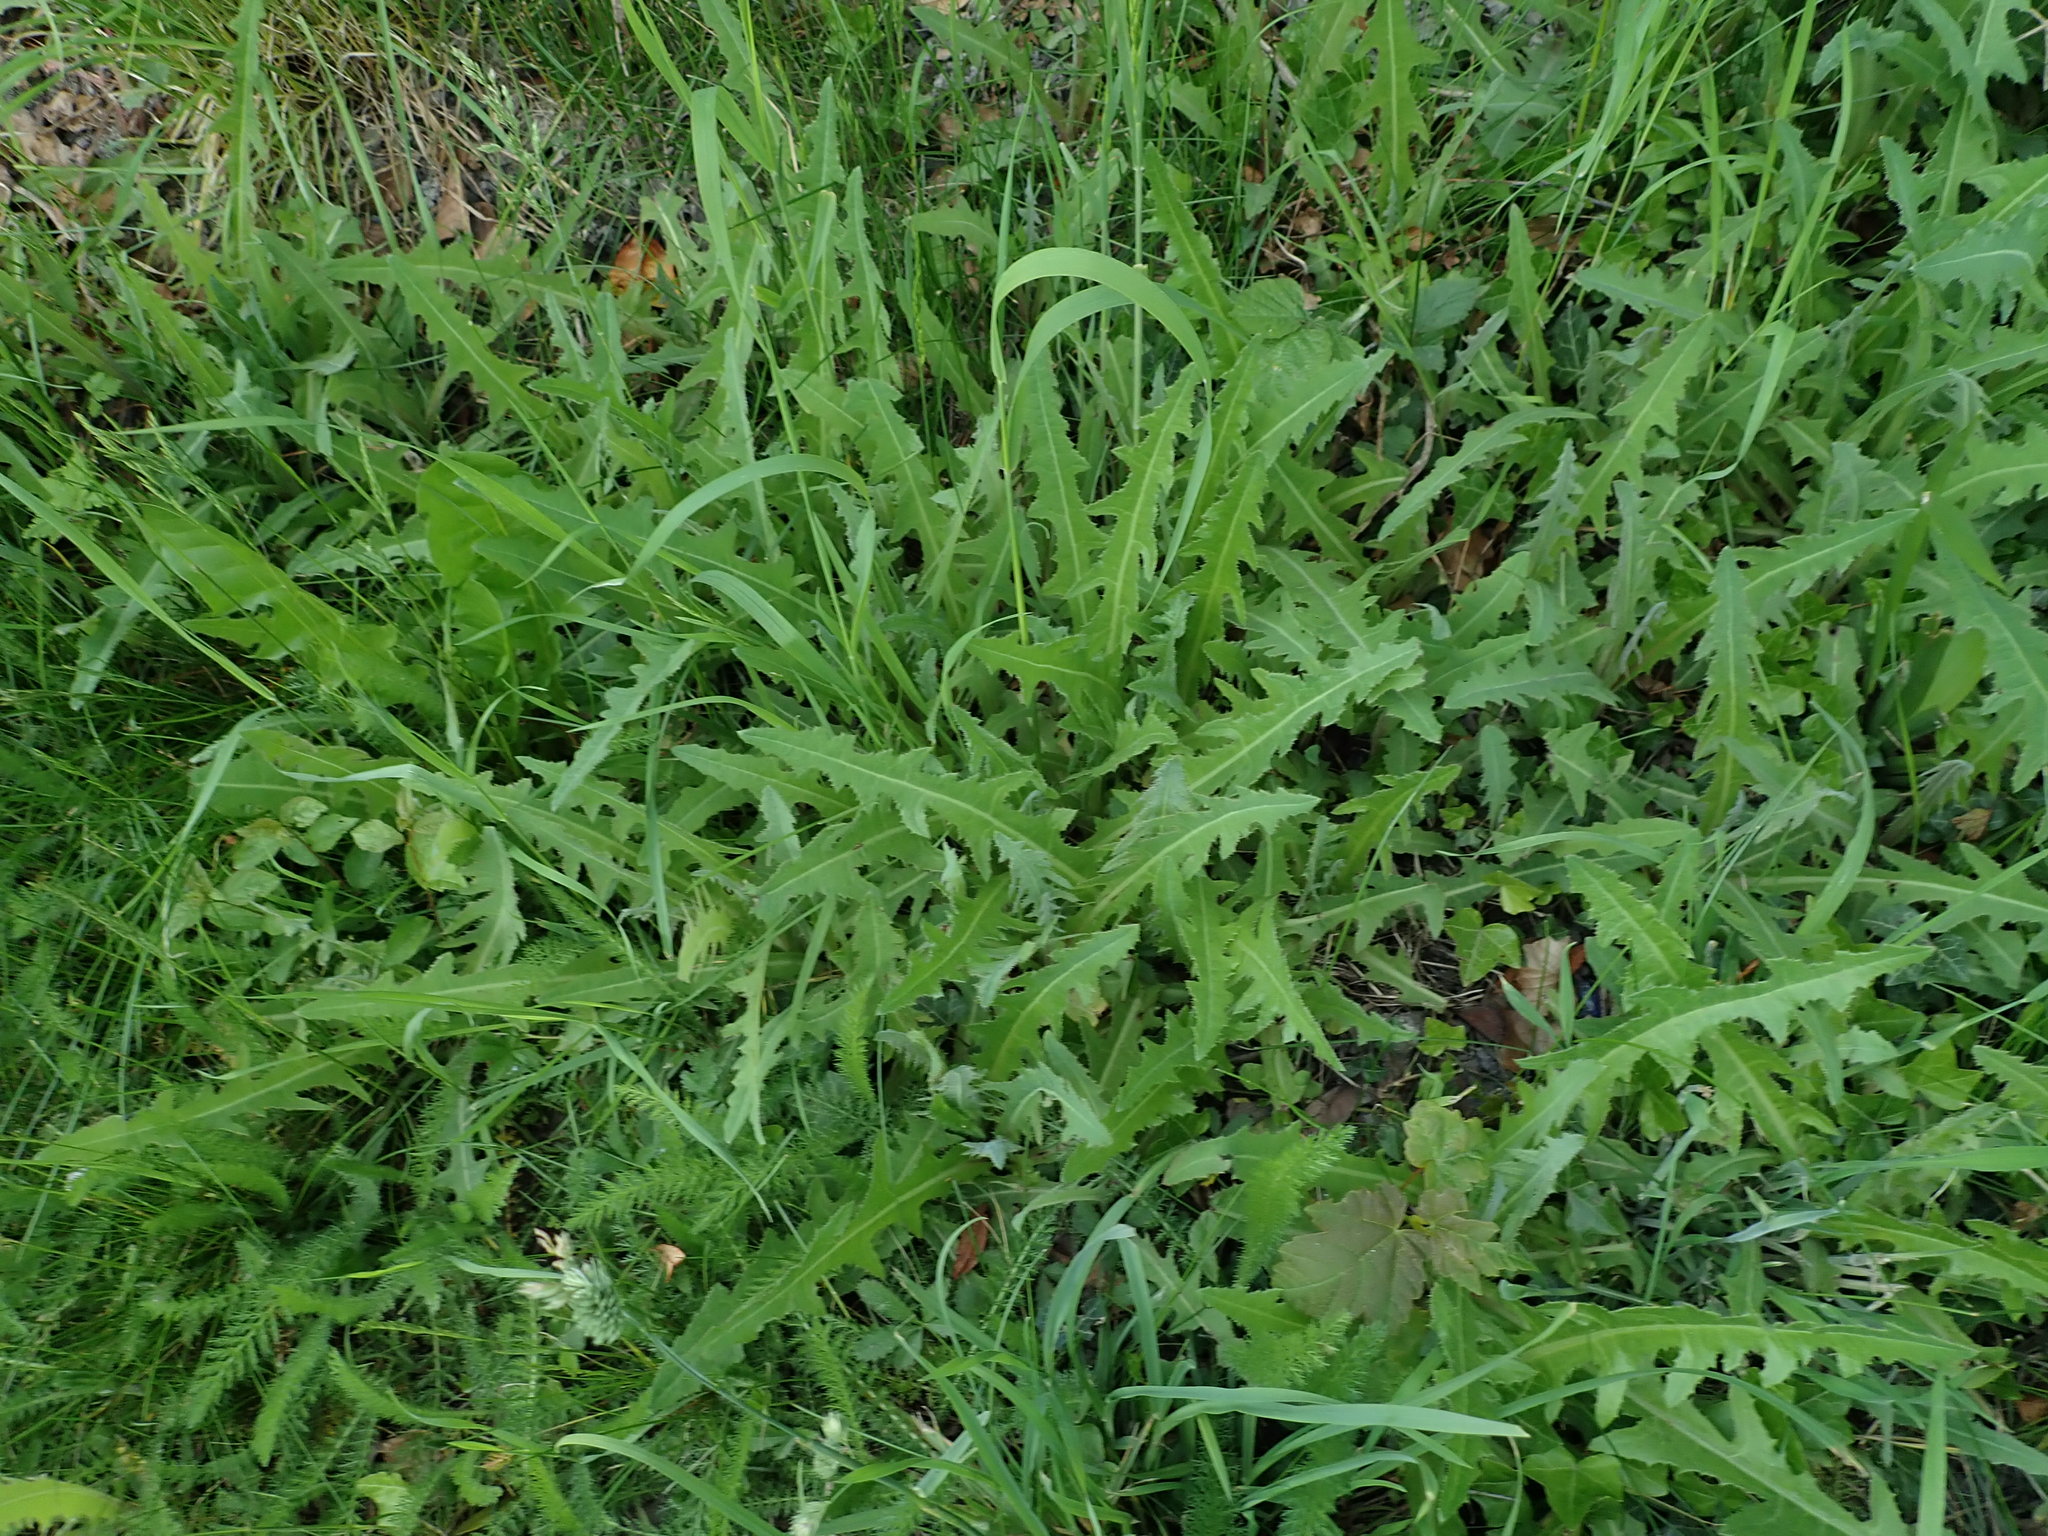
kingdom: Plantae
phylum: Tracheophyta
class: Magnoliopsida
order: Asterales
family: Asteraceae
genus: Sonchus
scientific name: Sonchus arvensis
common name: Perennial sow-thistle
